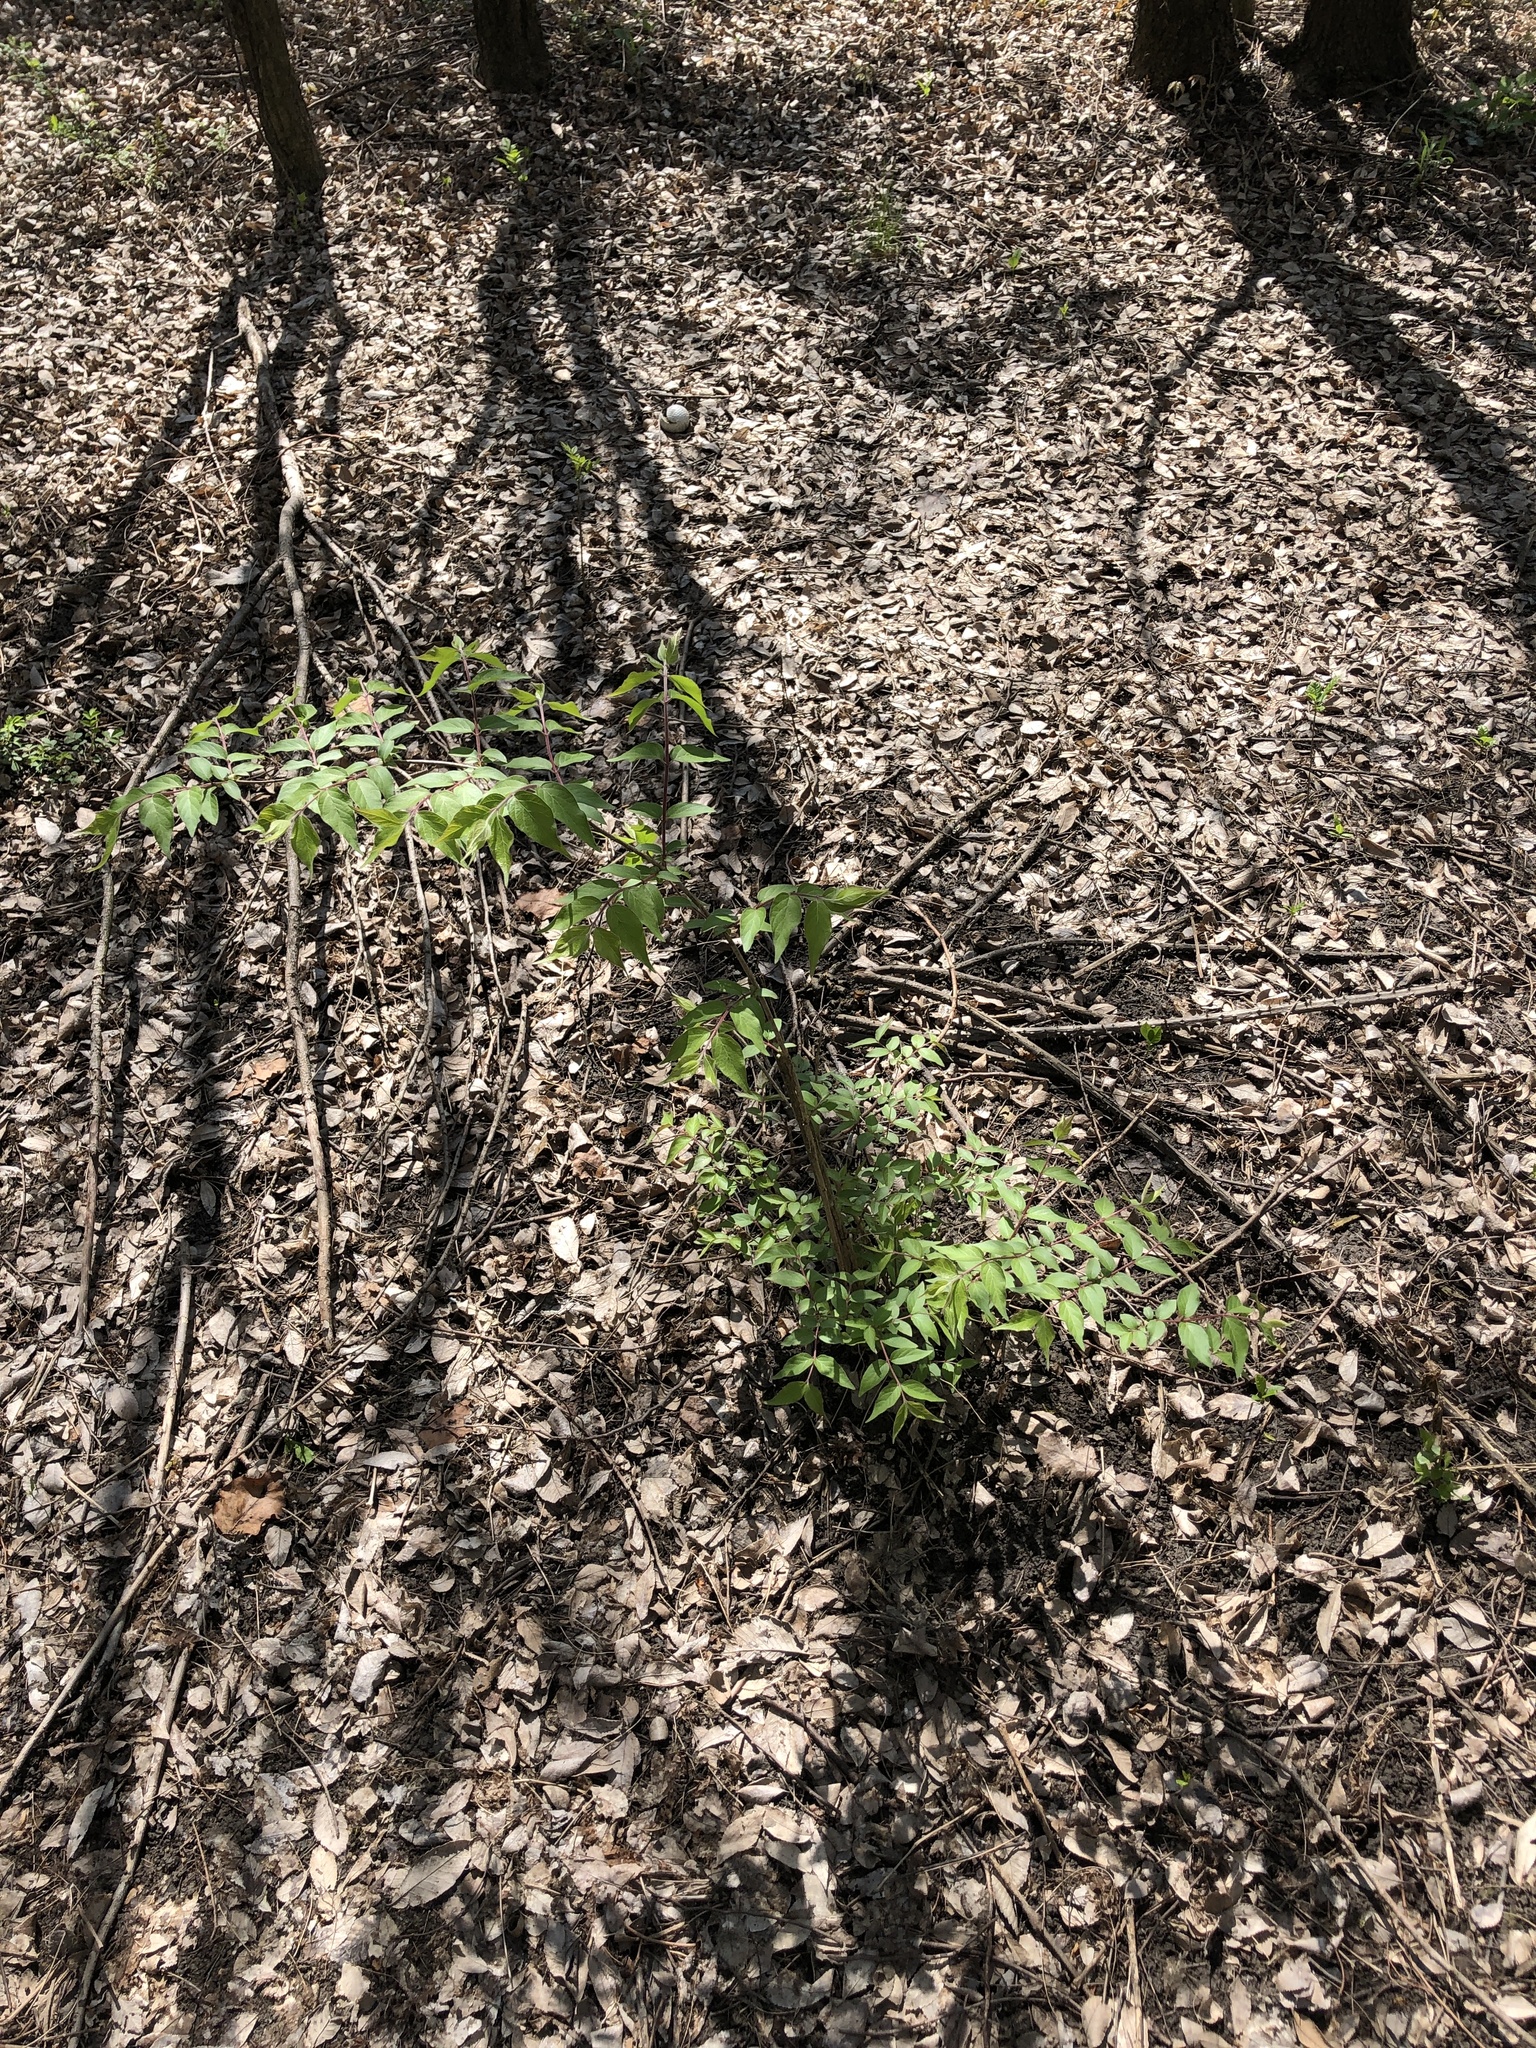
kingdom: Plantae
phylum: Tracheophyta
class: Magnoliopsida
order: Dipsacales
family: Caprifoliaceae
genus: Lonicera
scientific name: Lonicera maackii
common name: Amur honeysuckle
